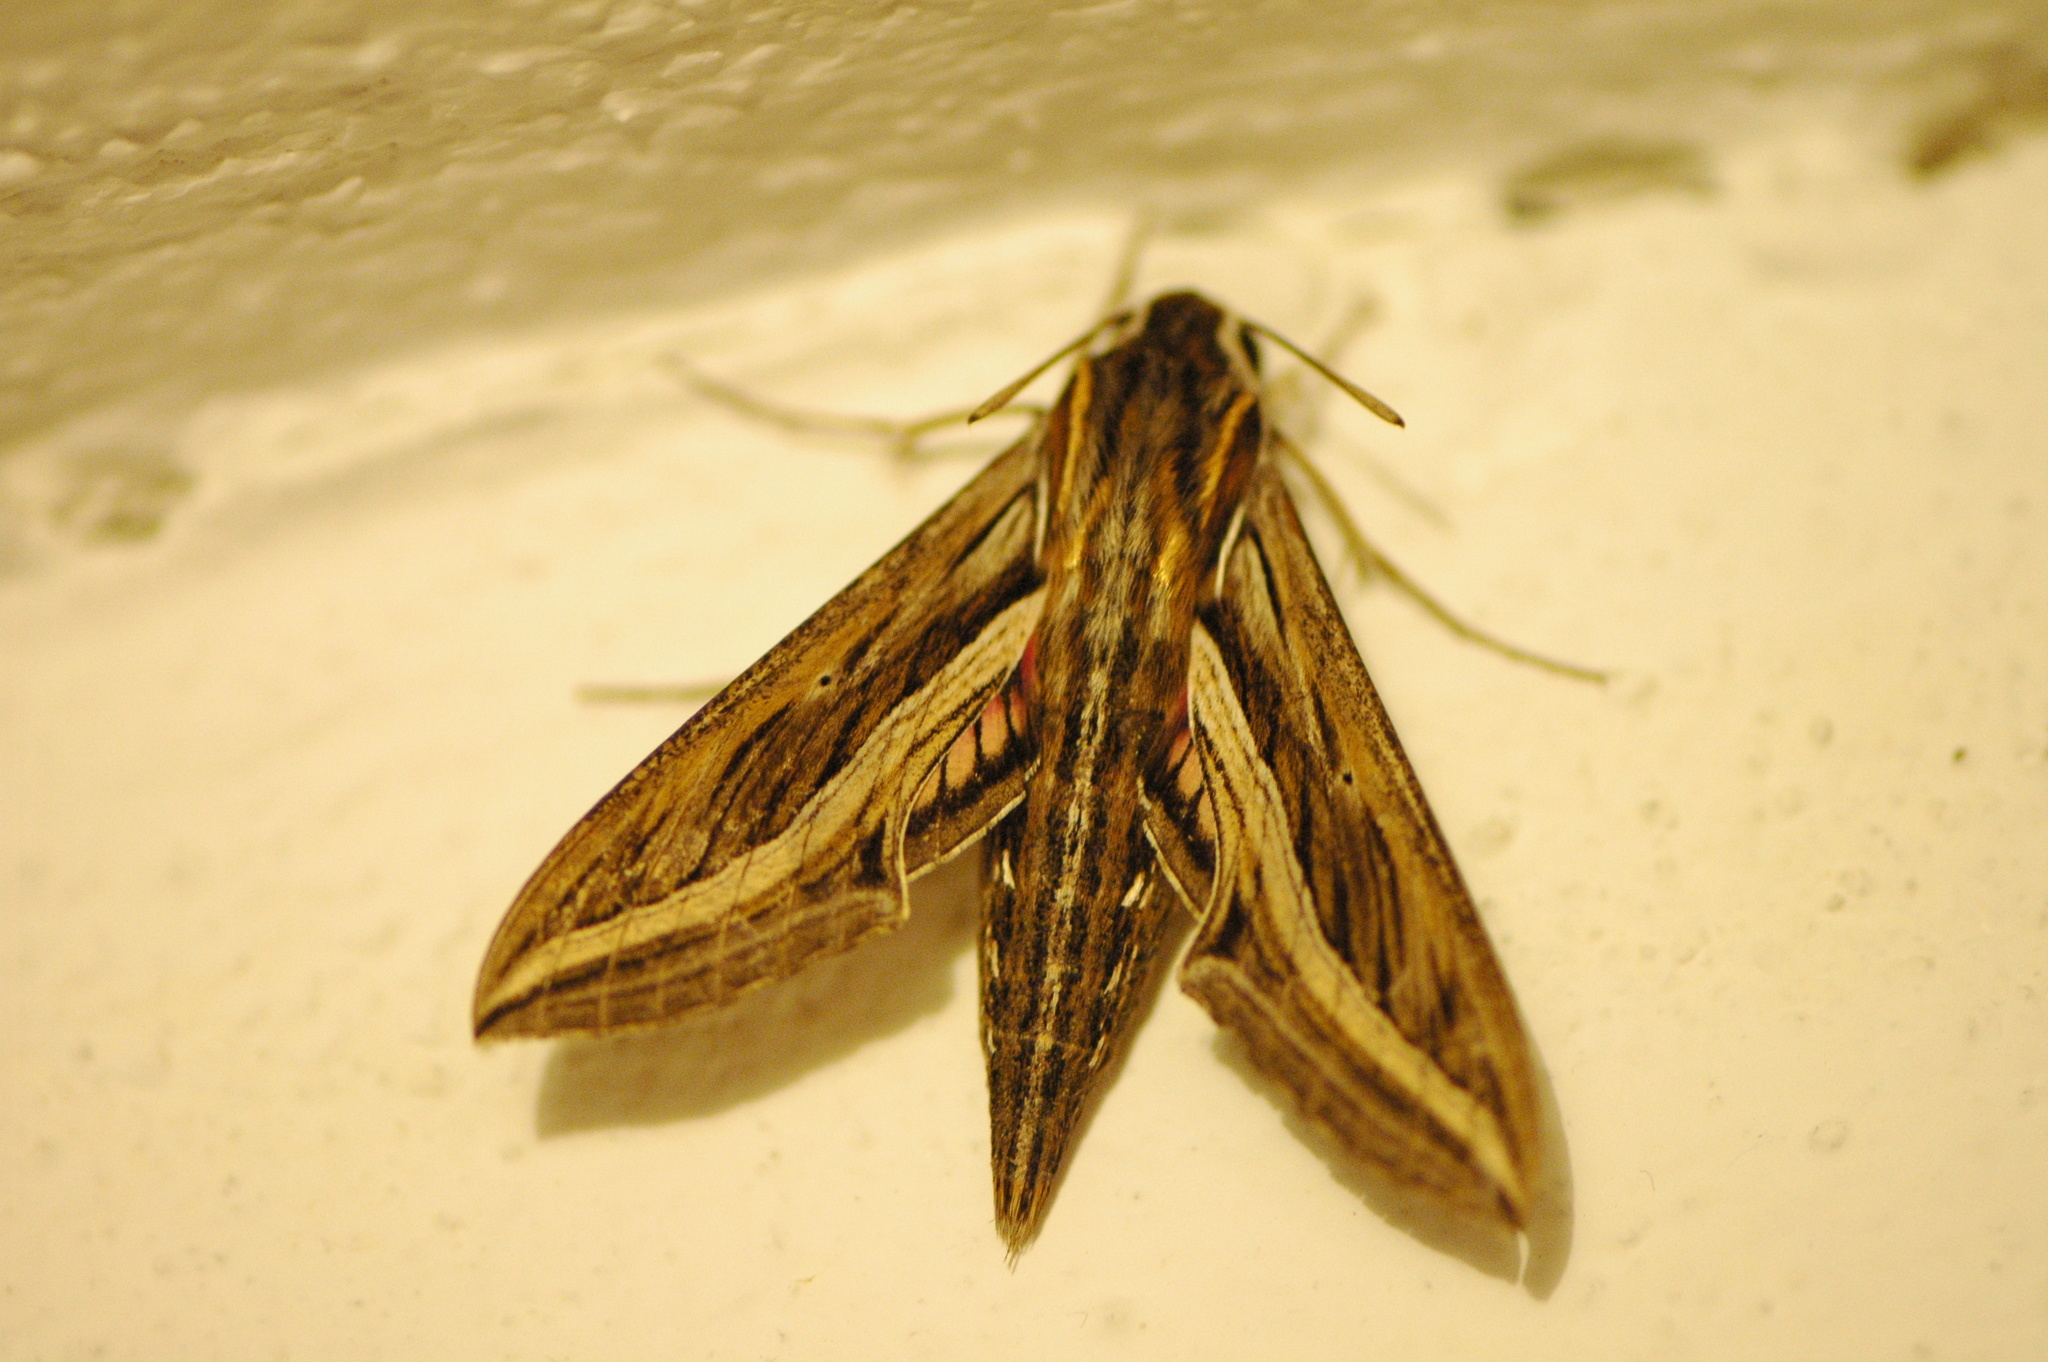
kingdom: Animalia
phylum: Arthropoda
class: Insecta
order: Lepidoptera
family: Sphingidae
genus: Hippotion
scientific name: Hippotion celerio
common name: Silver-striped hawk-moth
